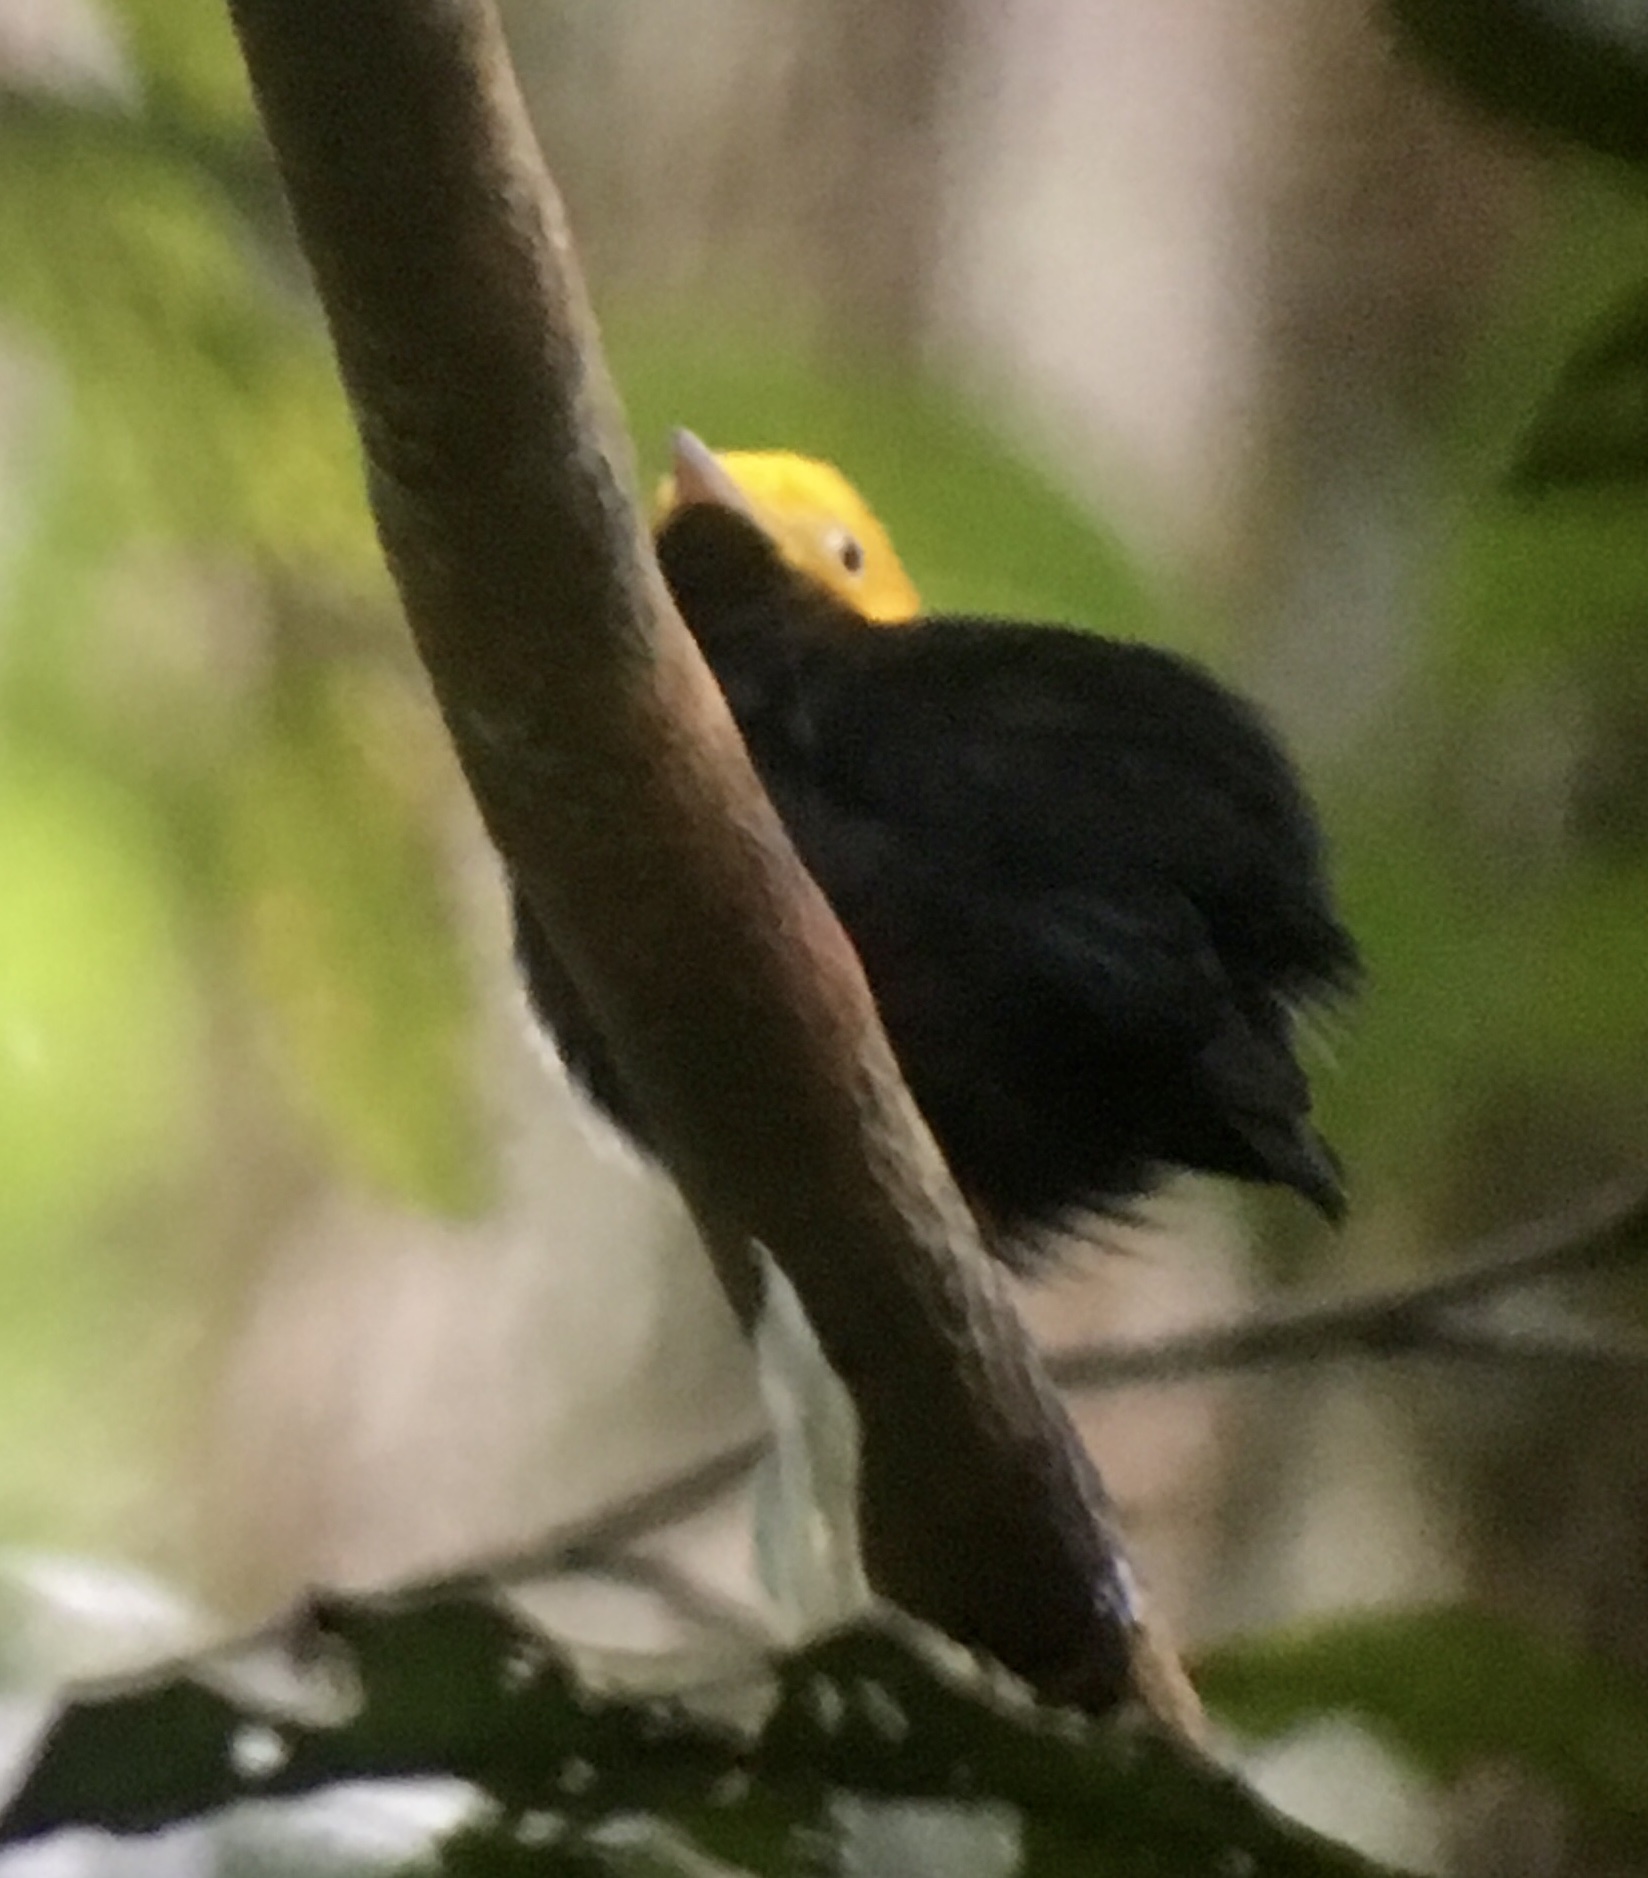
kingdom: Animalia
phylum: Chordata
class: Aves
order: Passeriformes
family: Pipridae
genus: Pipra
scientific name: Pipra erythrocephala
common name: Golden-headed manakin
